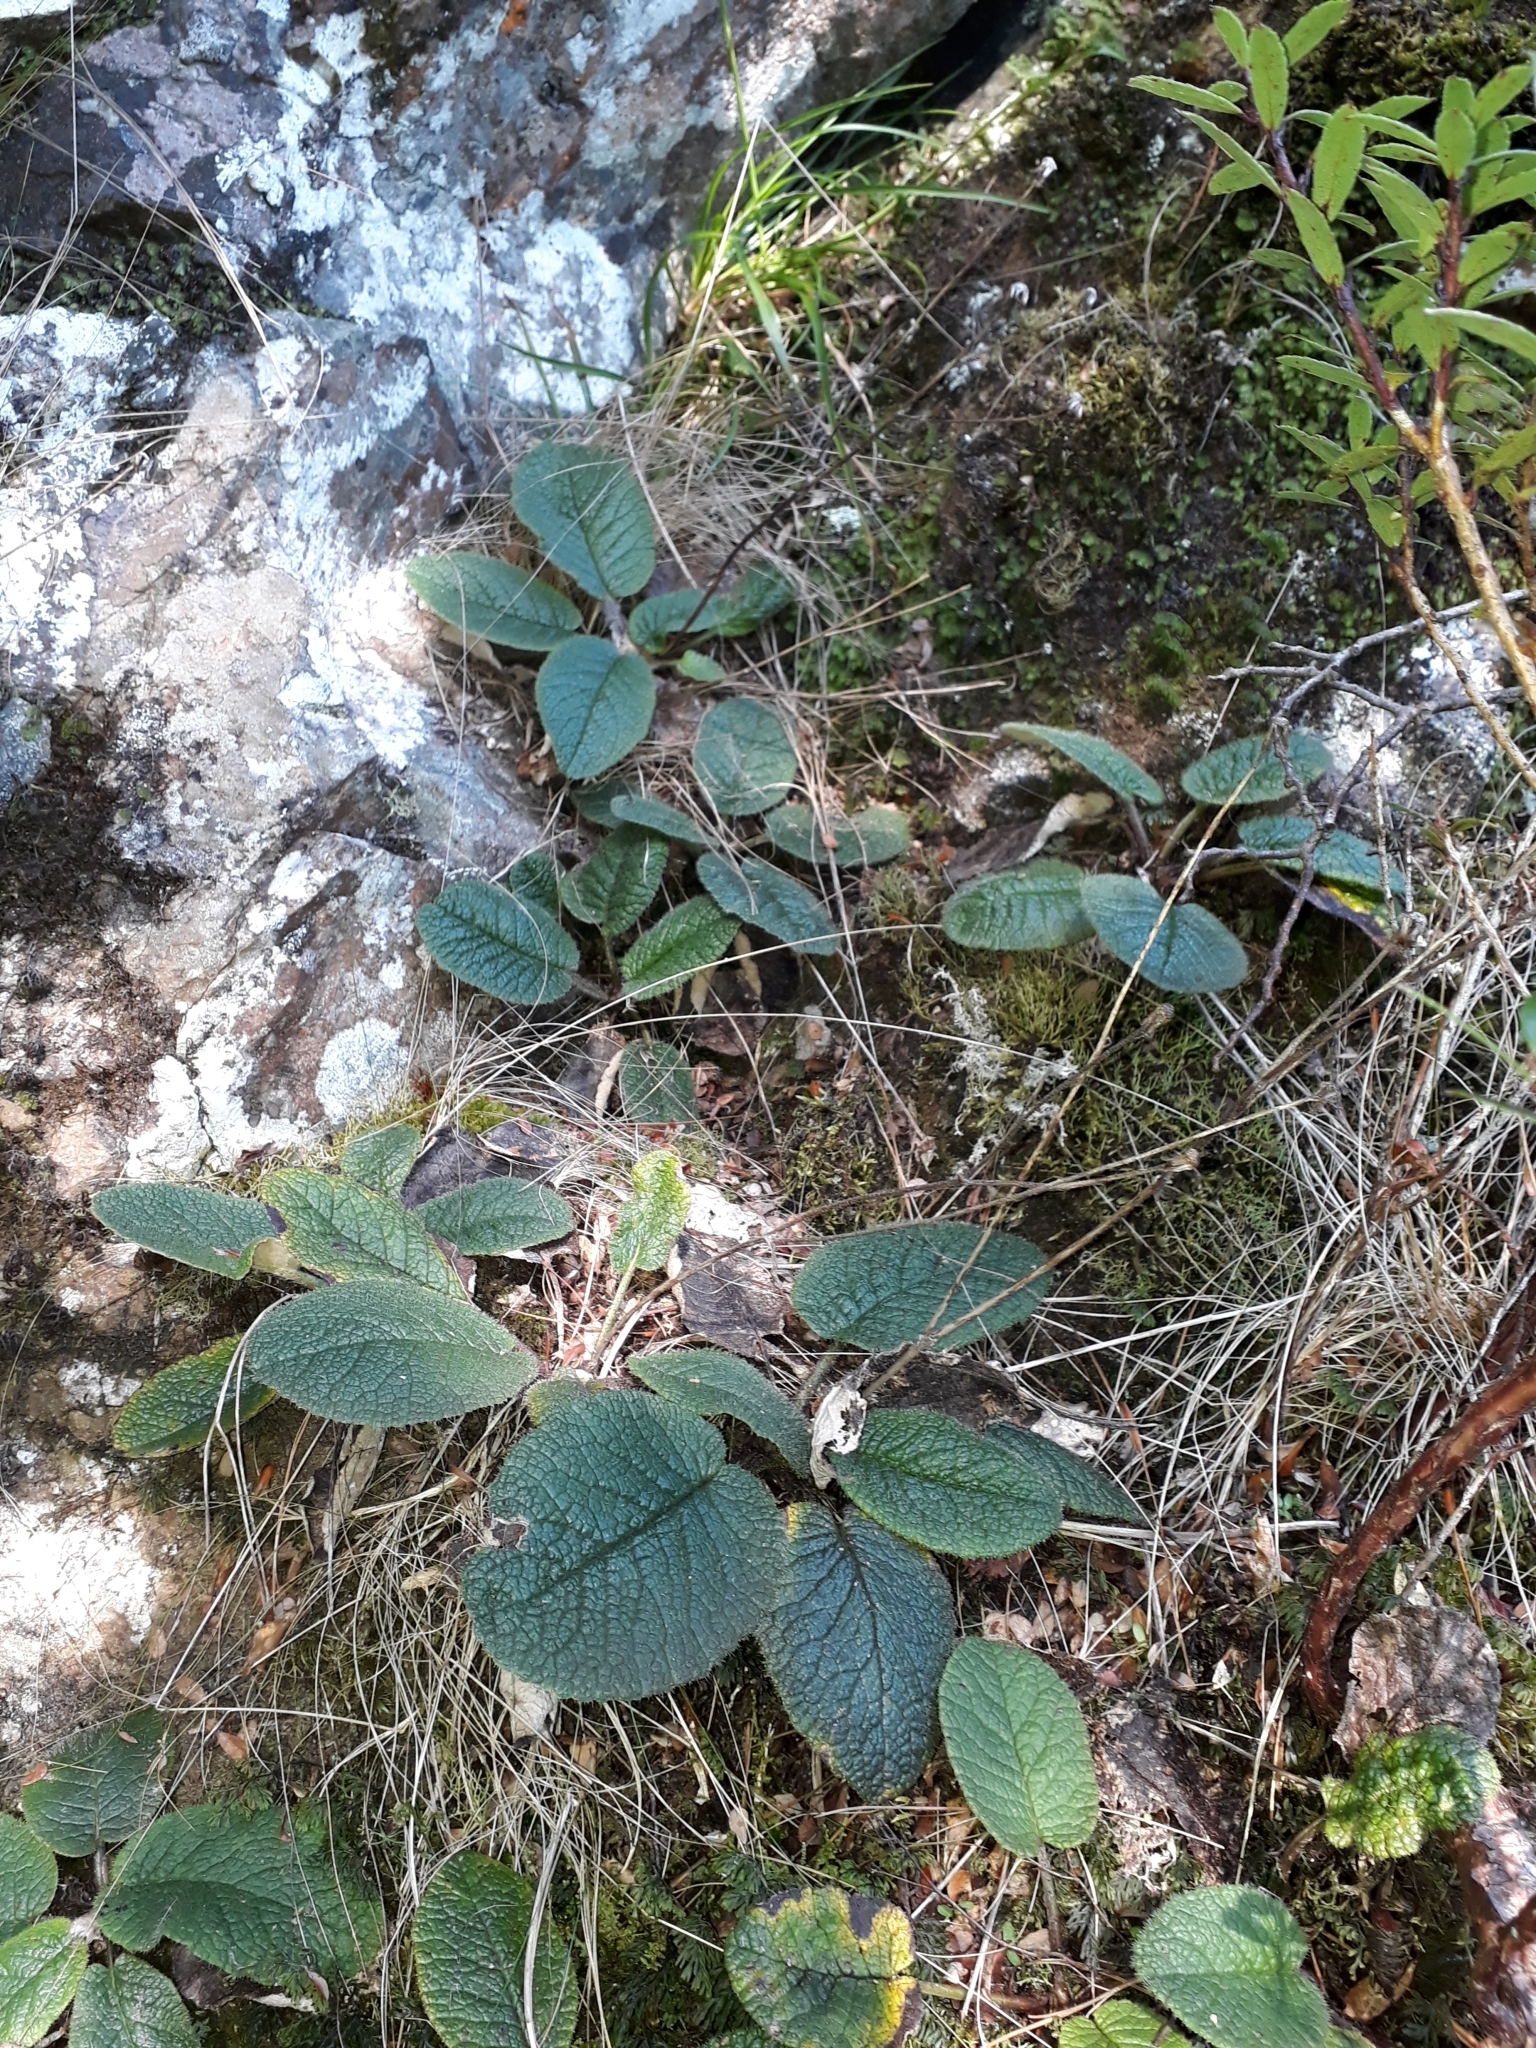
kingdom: Plantae
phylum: Tracheophyta
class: Magnoliopsida
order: Asterales
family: Asteraceae
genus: Brachyglottis
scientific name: Brachyglottis lagopus
